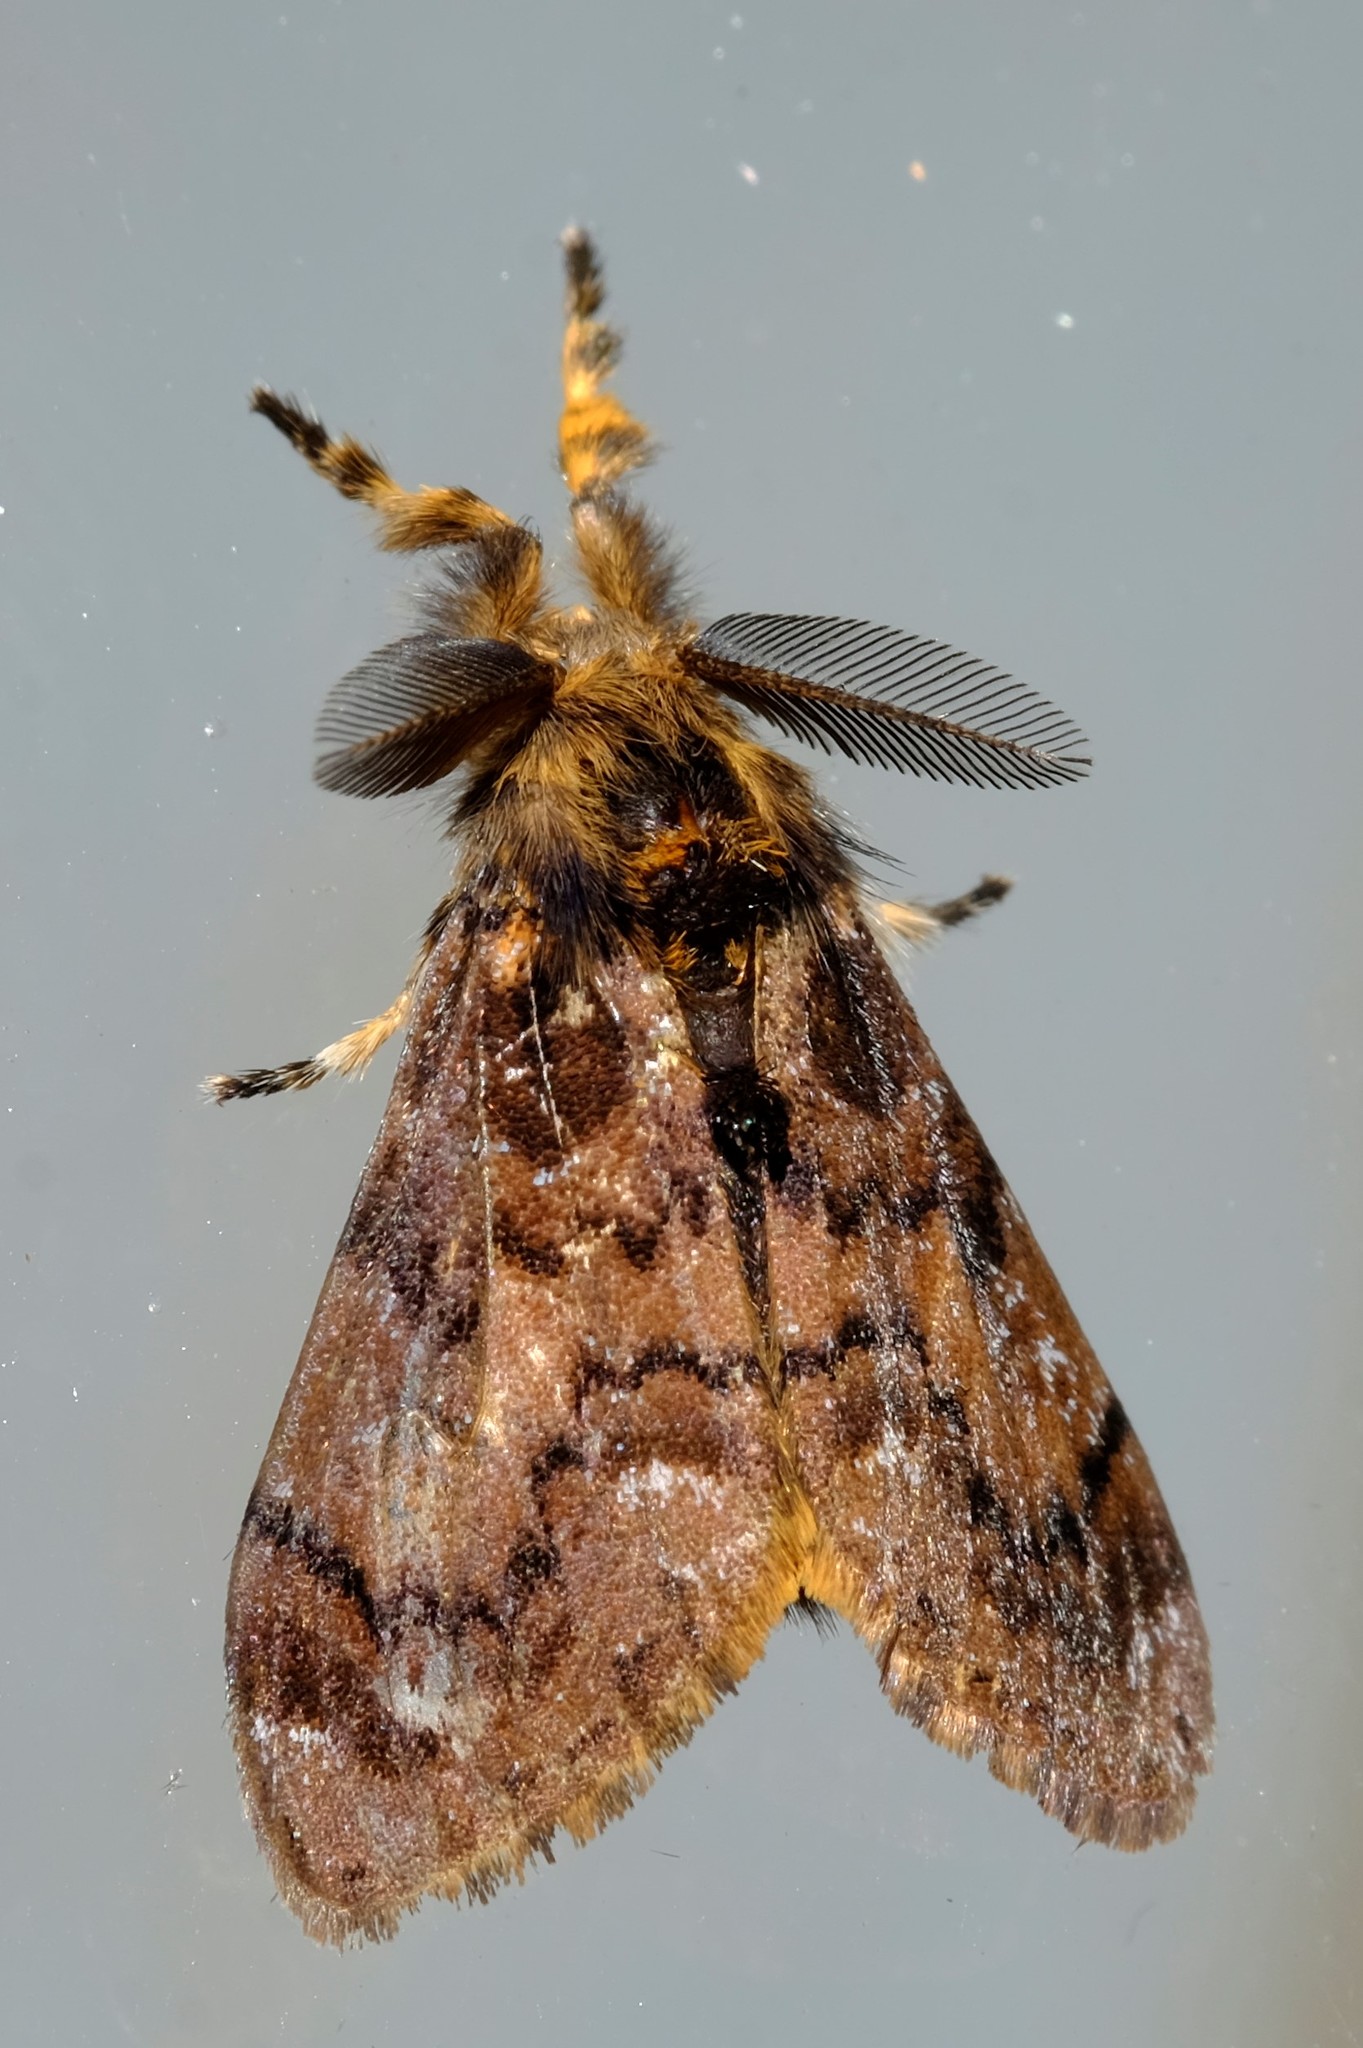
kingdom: Animalia
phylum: Arthropoda
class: Insecta
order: Lepidoptera
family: Erebidae
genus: Orgyia
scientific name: Orgyia
